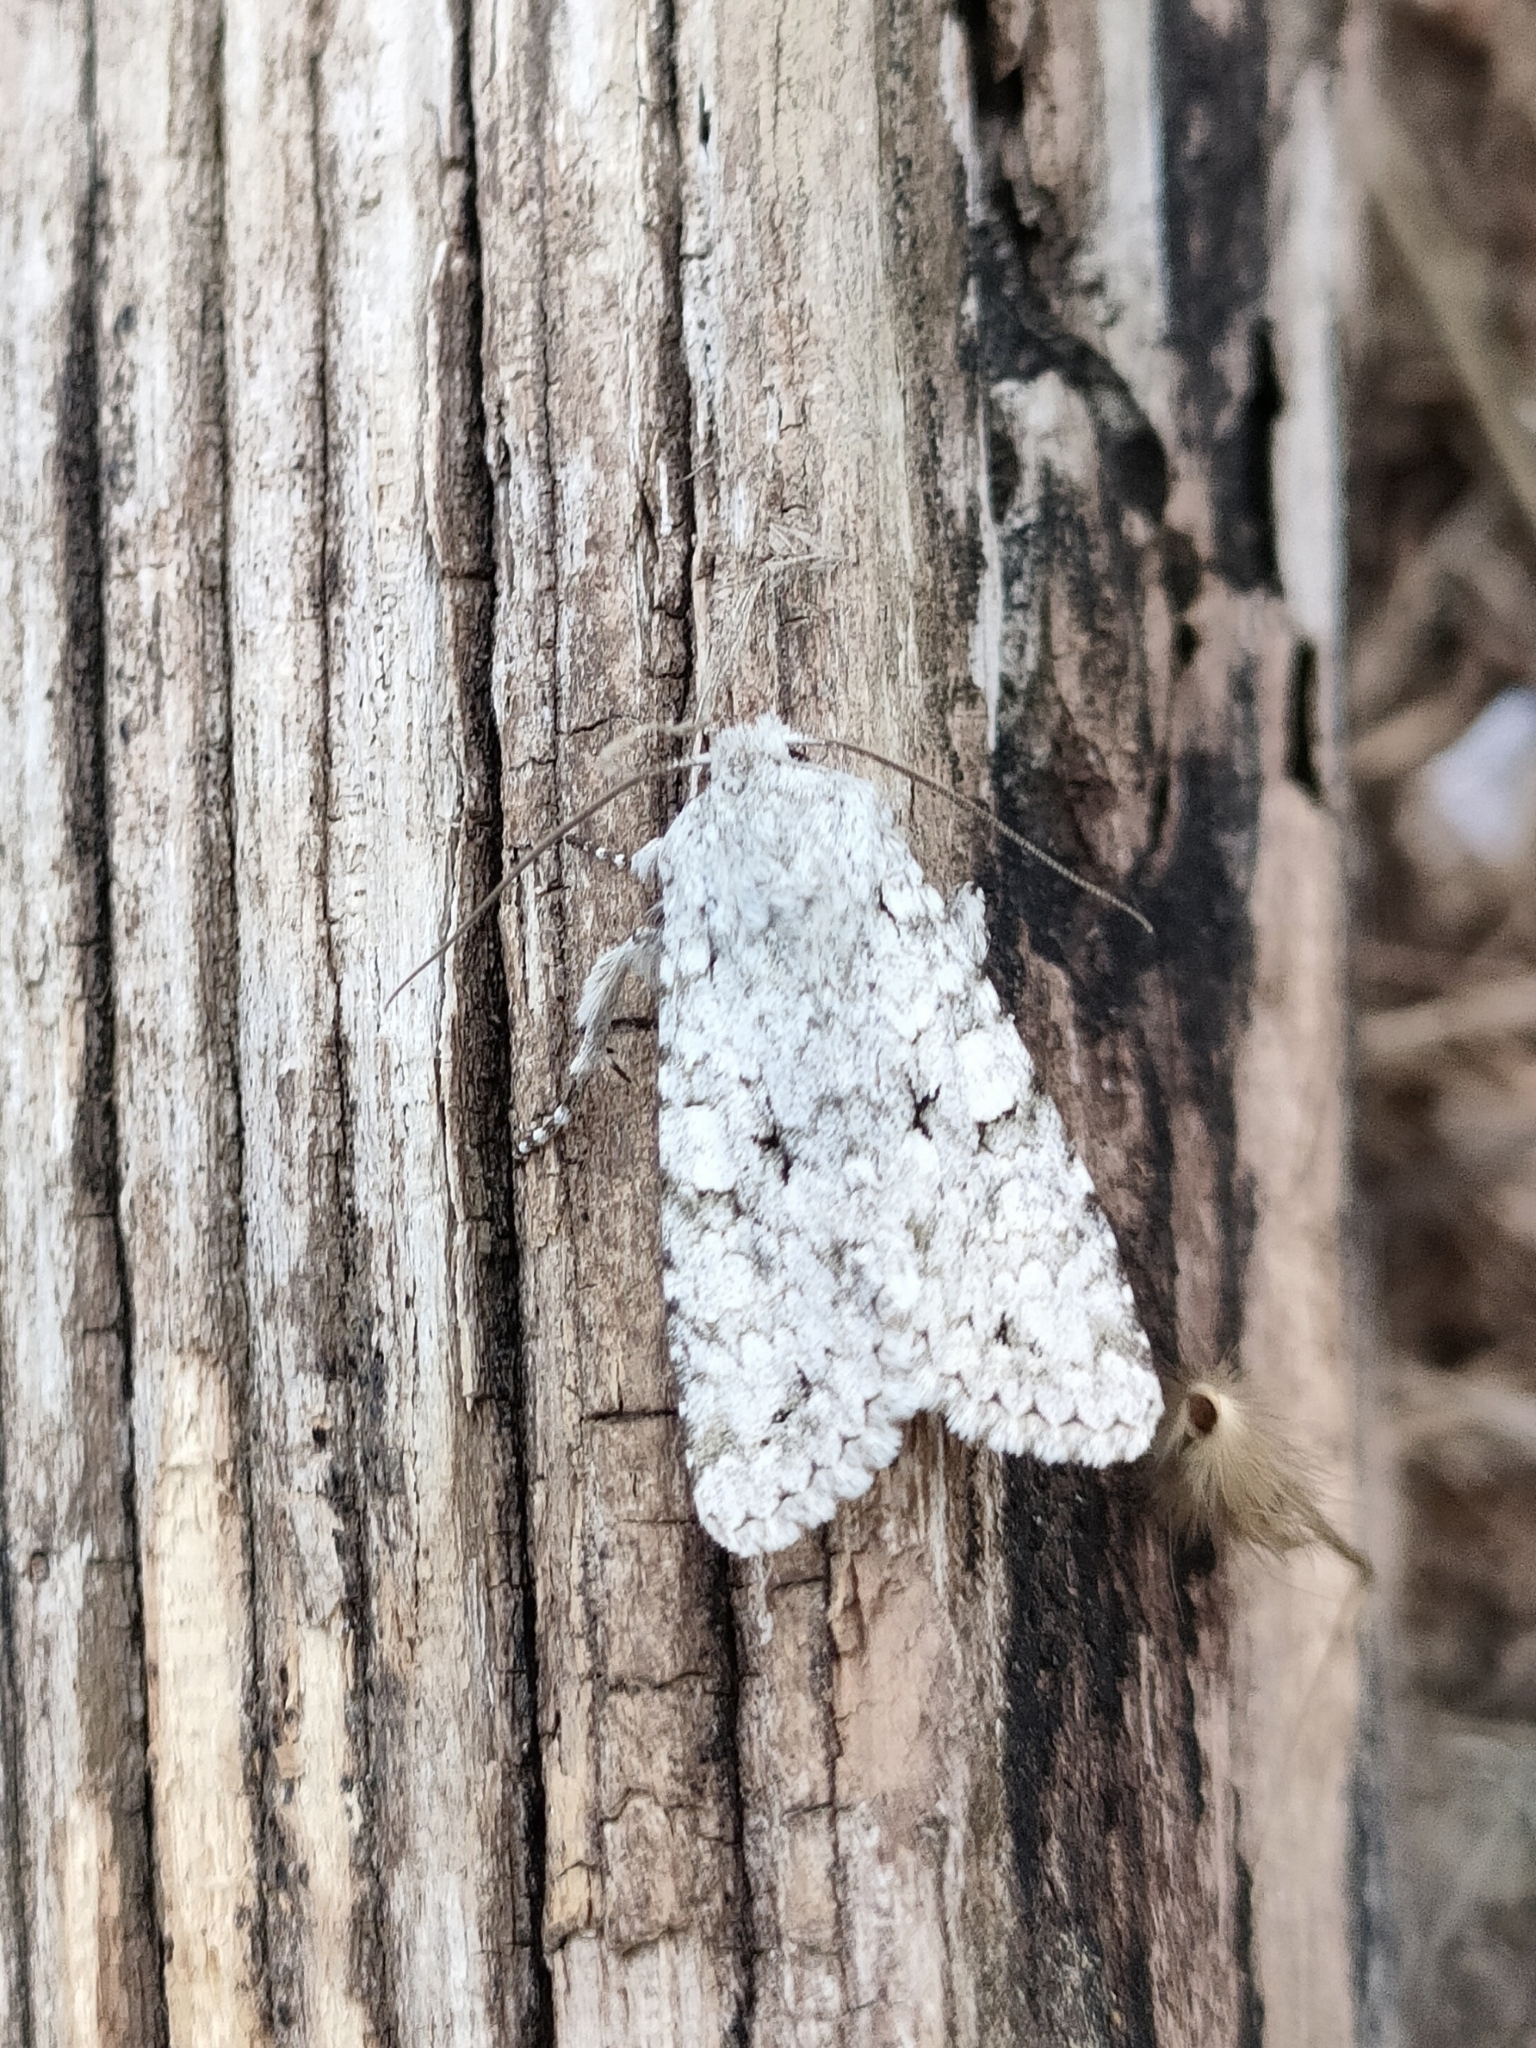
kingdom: Animalia
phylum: Arthropoda
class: Insecta
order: Lepidoptera
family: Noctuidae
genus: Antitype
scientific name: Antitype chi
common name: Grey chi
